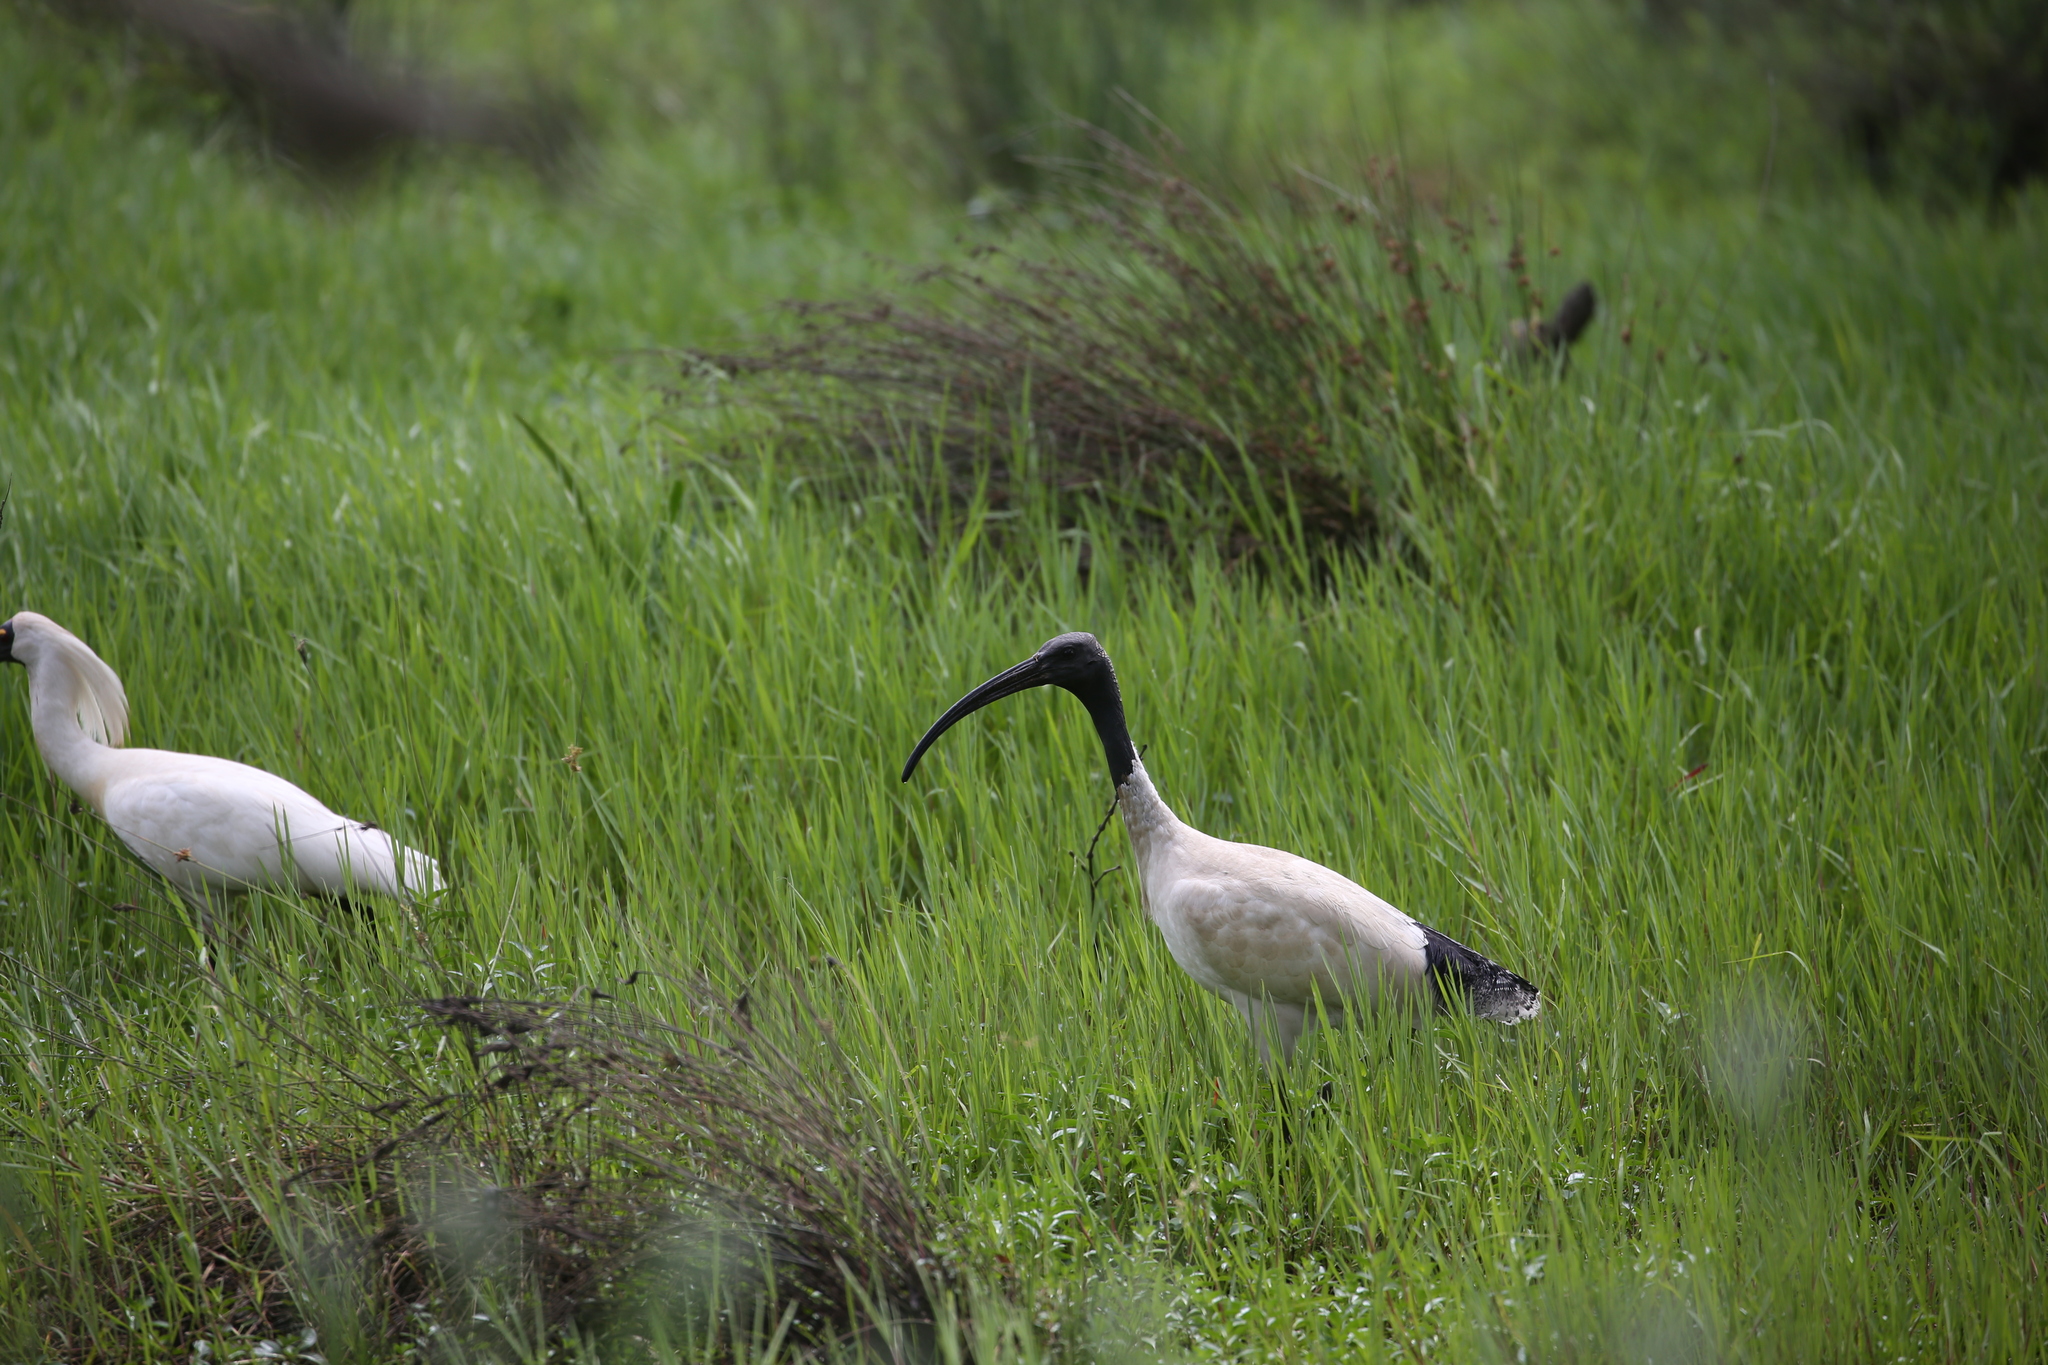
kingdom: Animalia
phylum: Chordata
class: Aves
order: Pelecaniformes
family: Threskiornithidae
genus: Threskiornis
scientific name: Threskiornis molucca
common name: Australian white ibis
